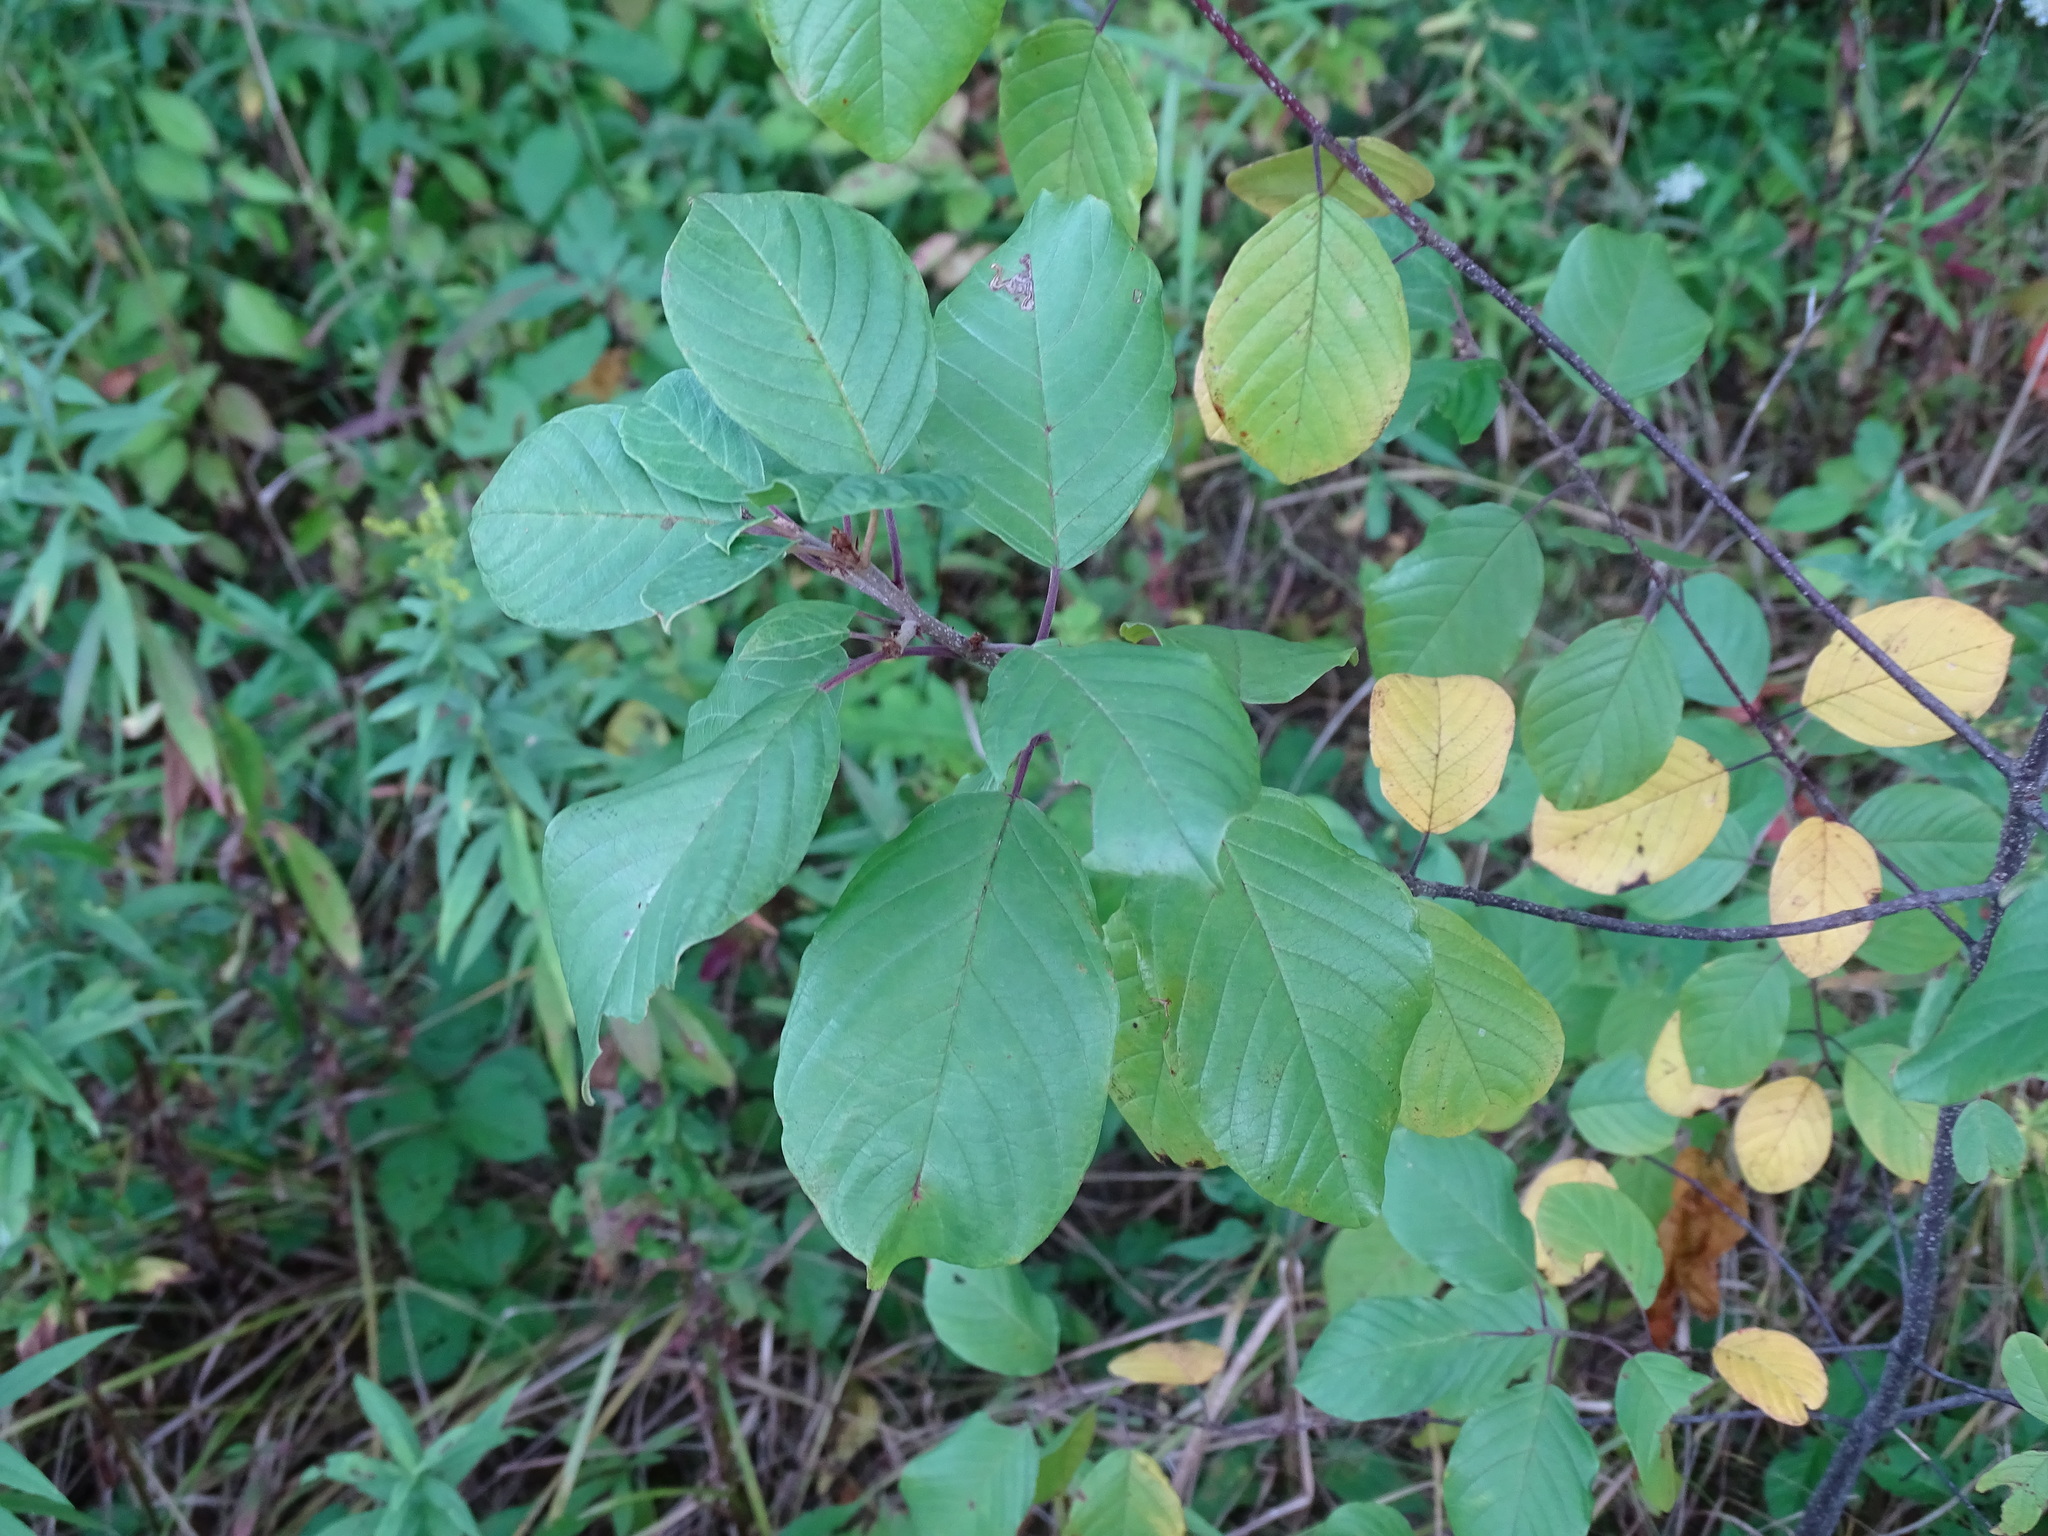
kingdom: Plantae
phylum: Tracheophyta
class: Magnoliopsida
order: Rosales
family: Rhamnaceae
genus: Frangula
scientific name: Frangula alnus
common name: Alder buckthorn
